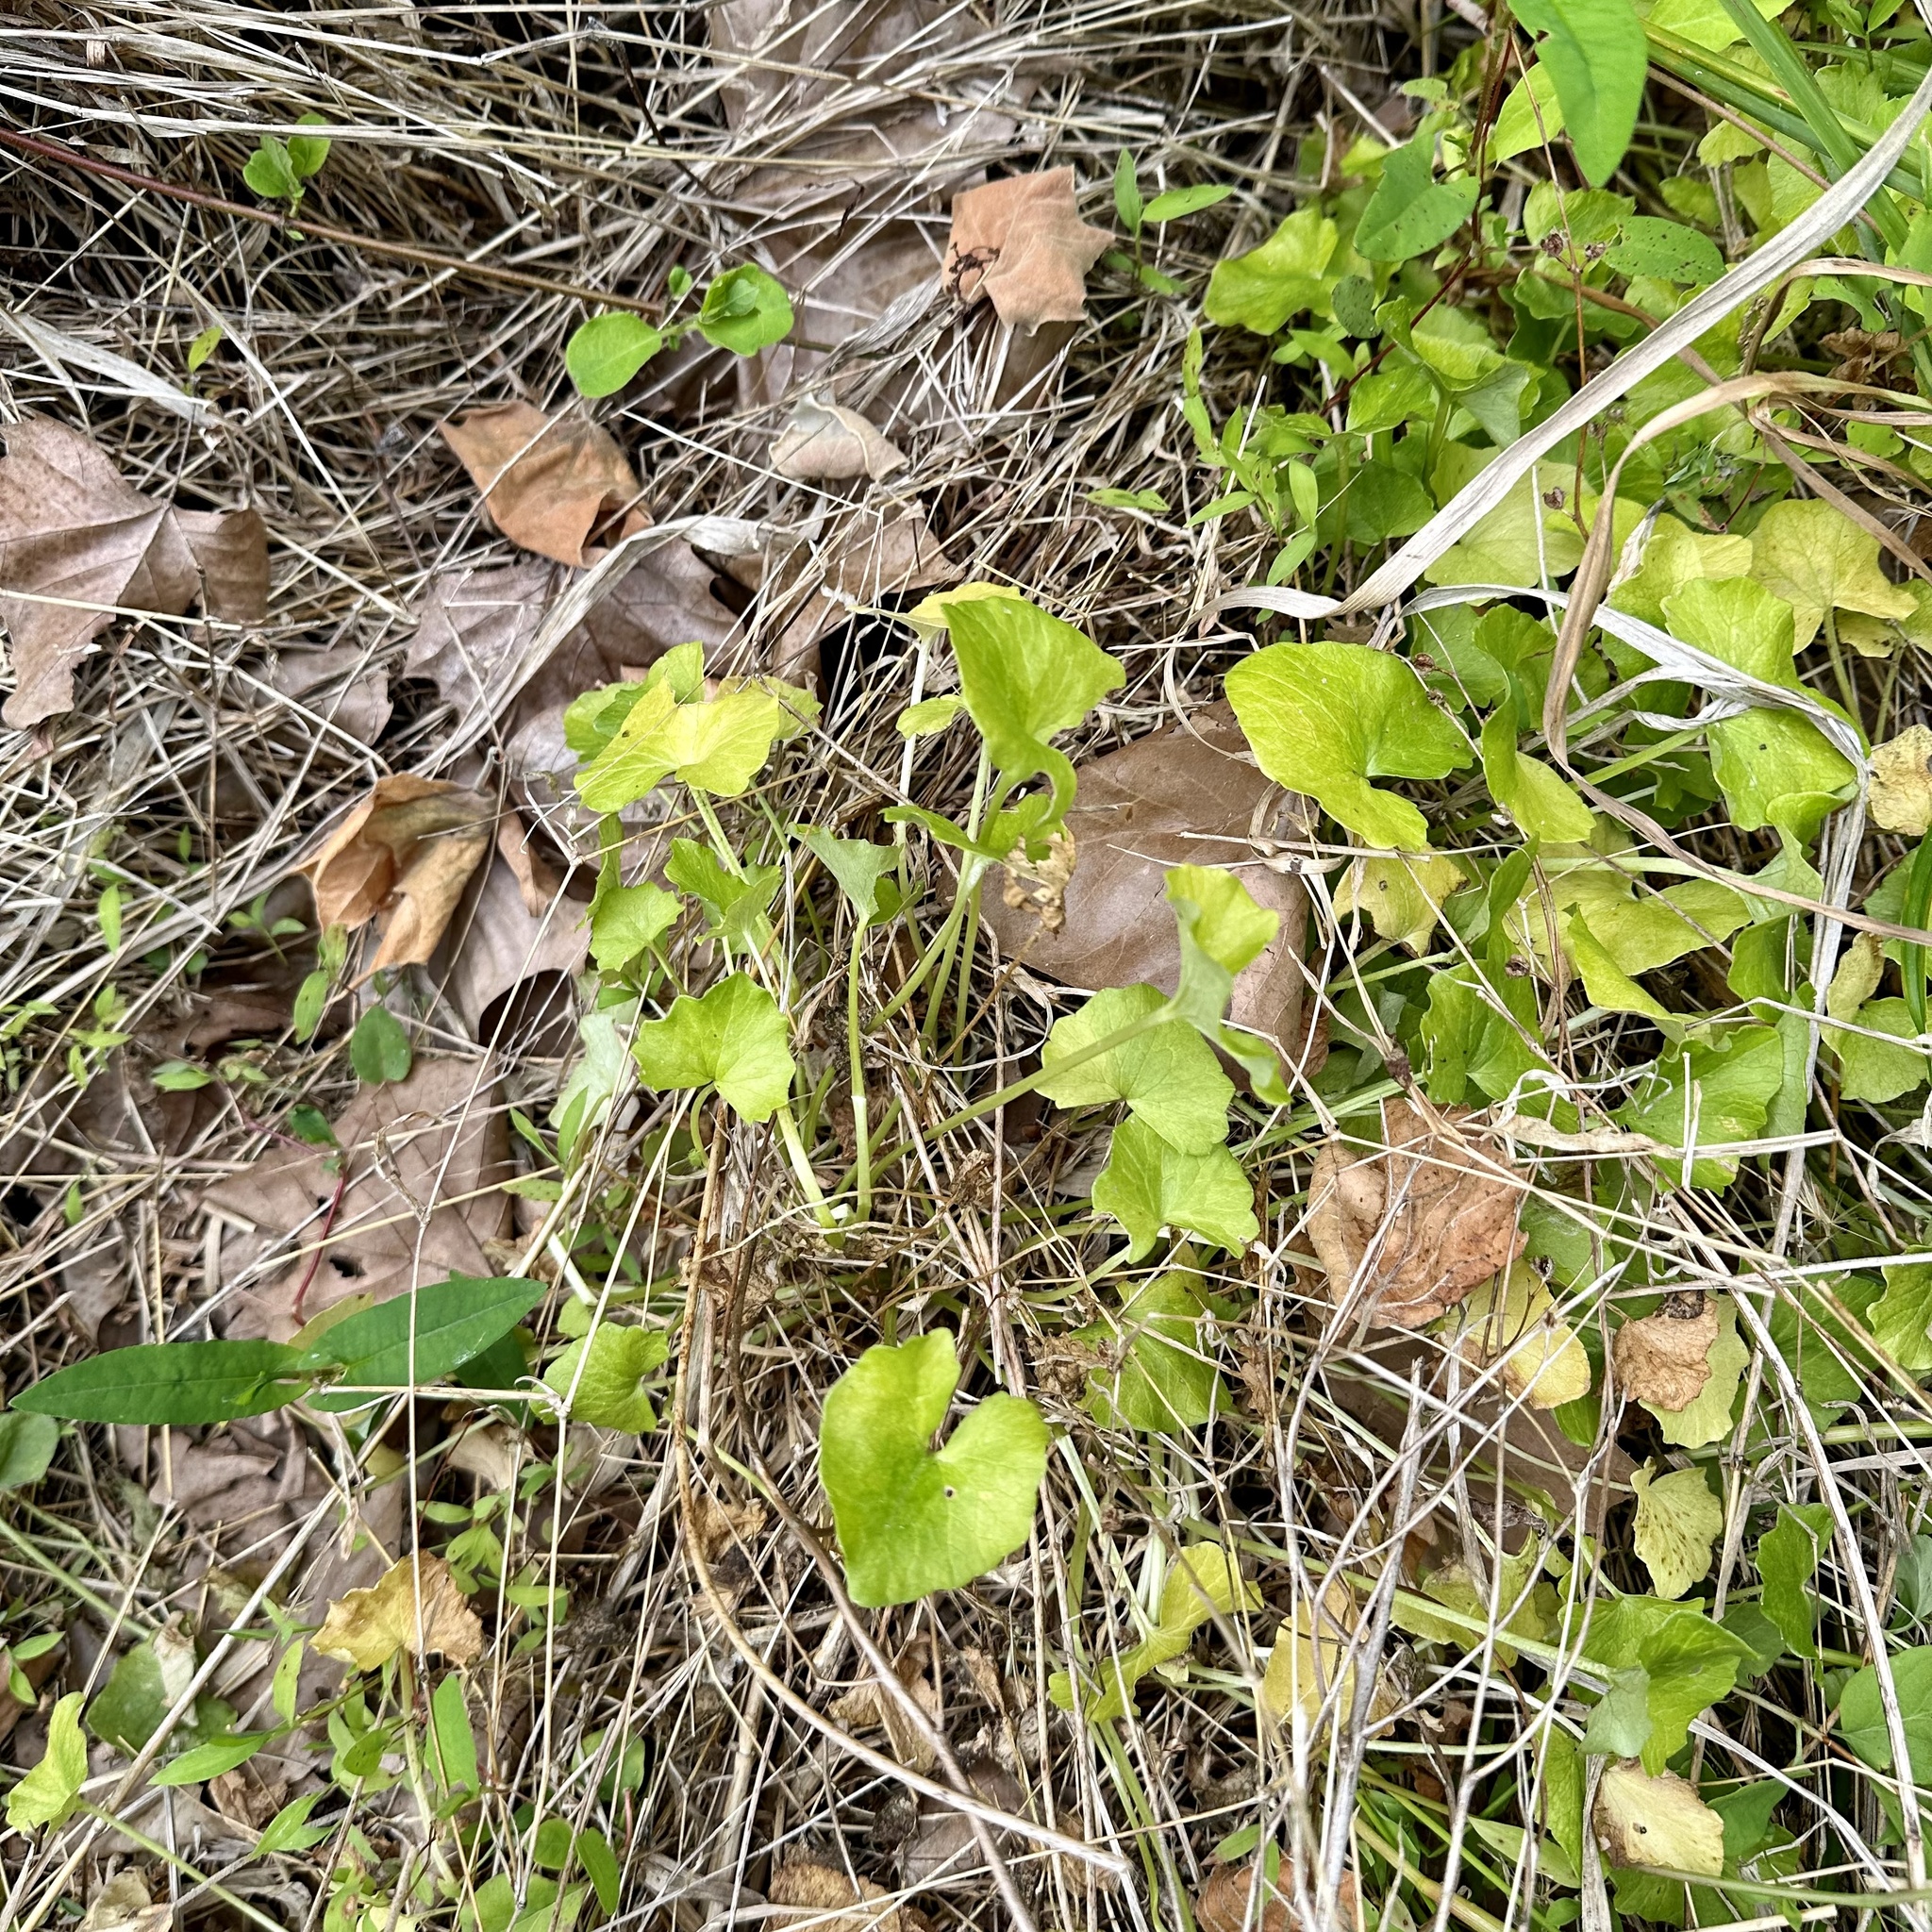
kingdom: Plantae
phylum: Tracheophyta
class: Magnoliopsida
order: Ranunculales
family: Ranunculaceae
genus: Ficaria
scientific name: Ficaria verna
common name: Lesser celandine
